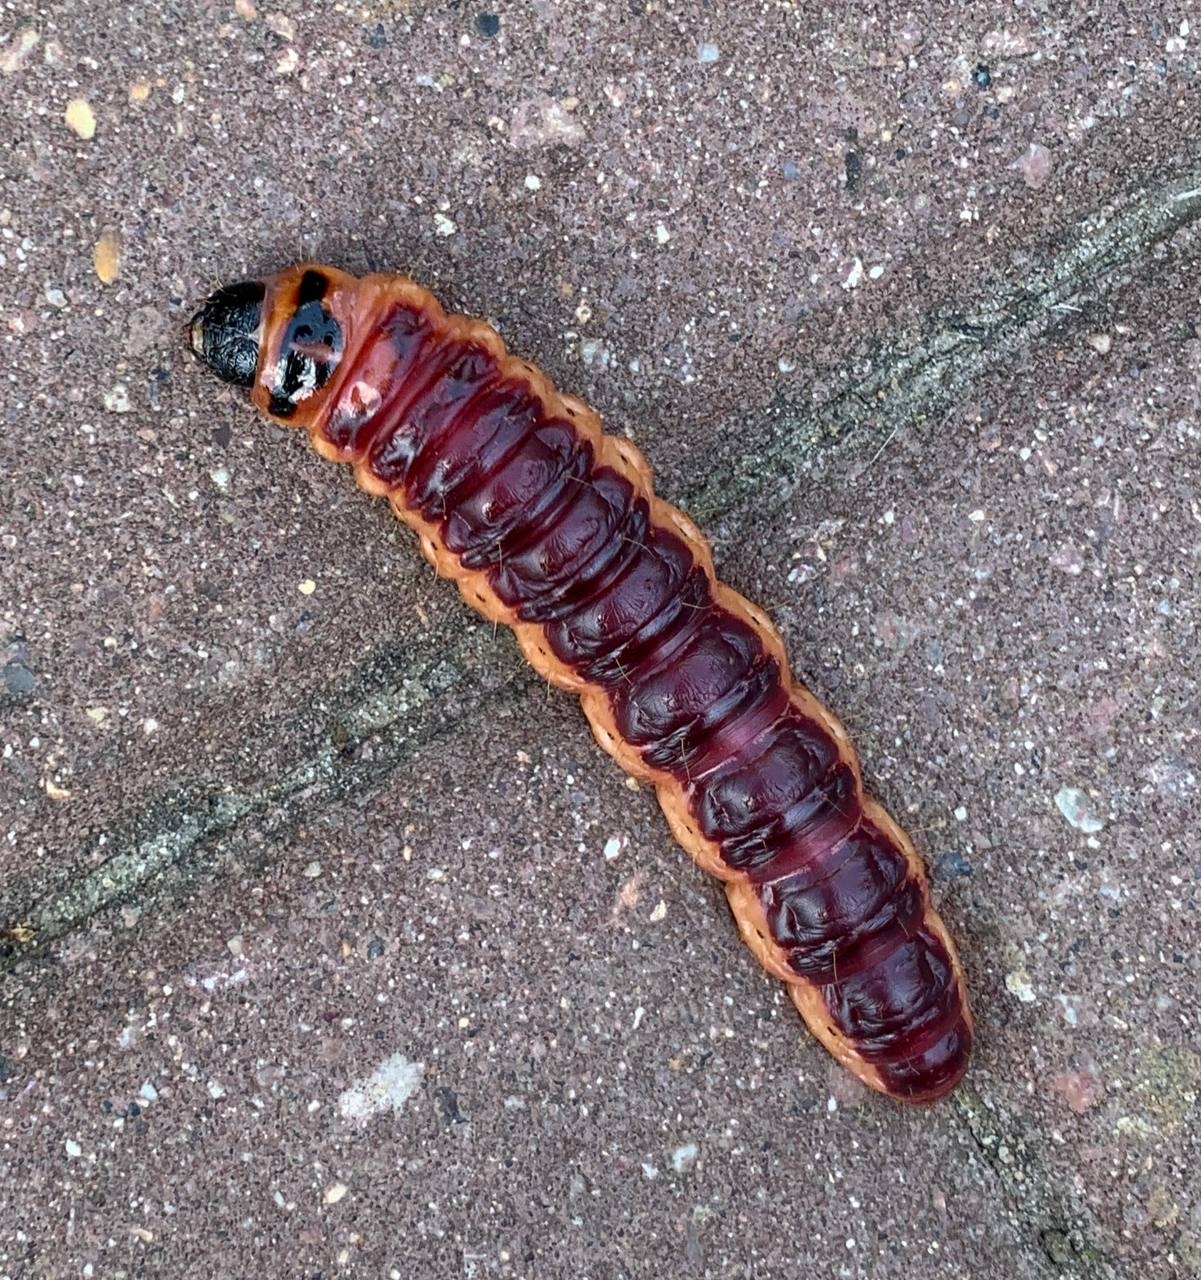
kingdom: Animalia
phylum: Arthropoda
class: Insecta
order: Lepidoptera
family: Cossidae
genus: Cossus
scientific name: Cossus cossus
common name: Goat moth
